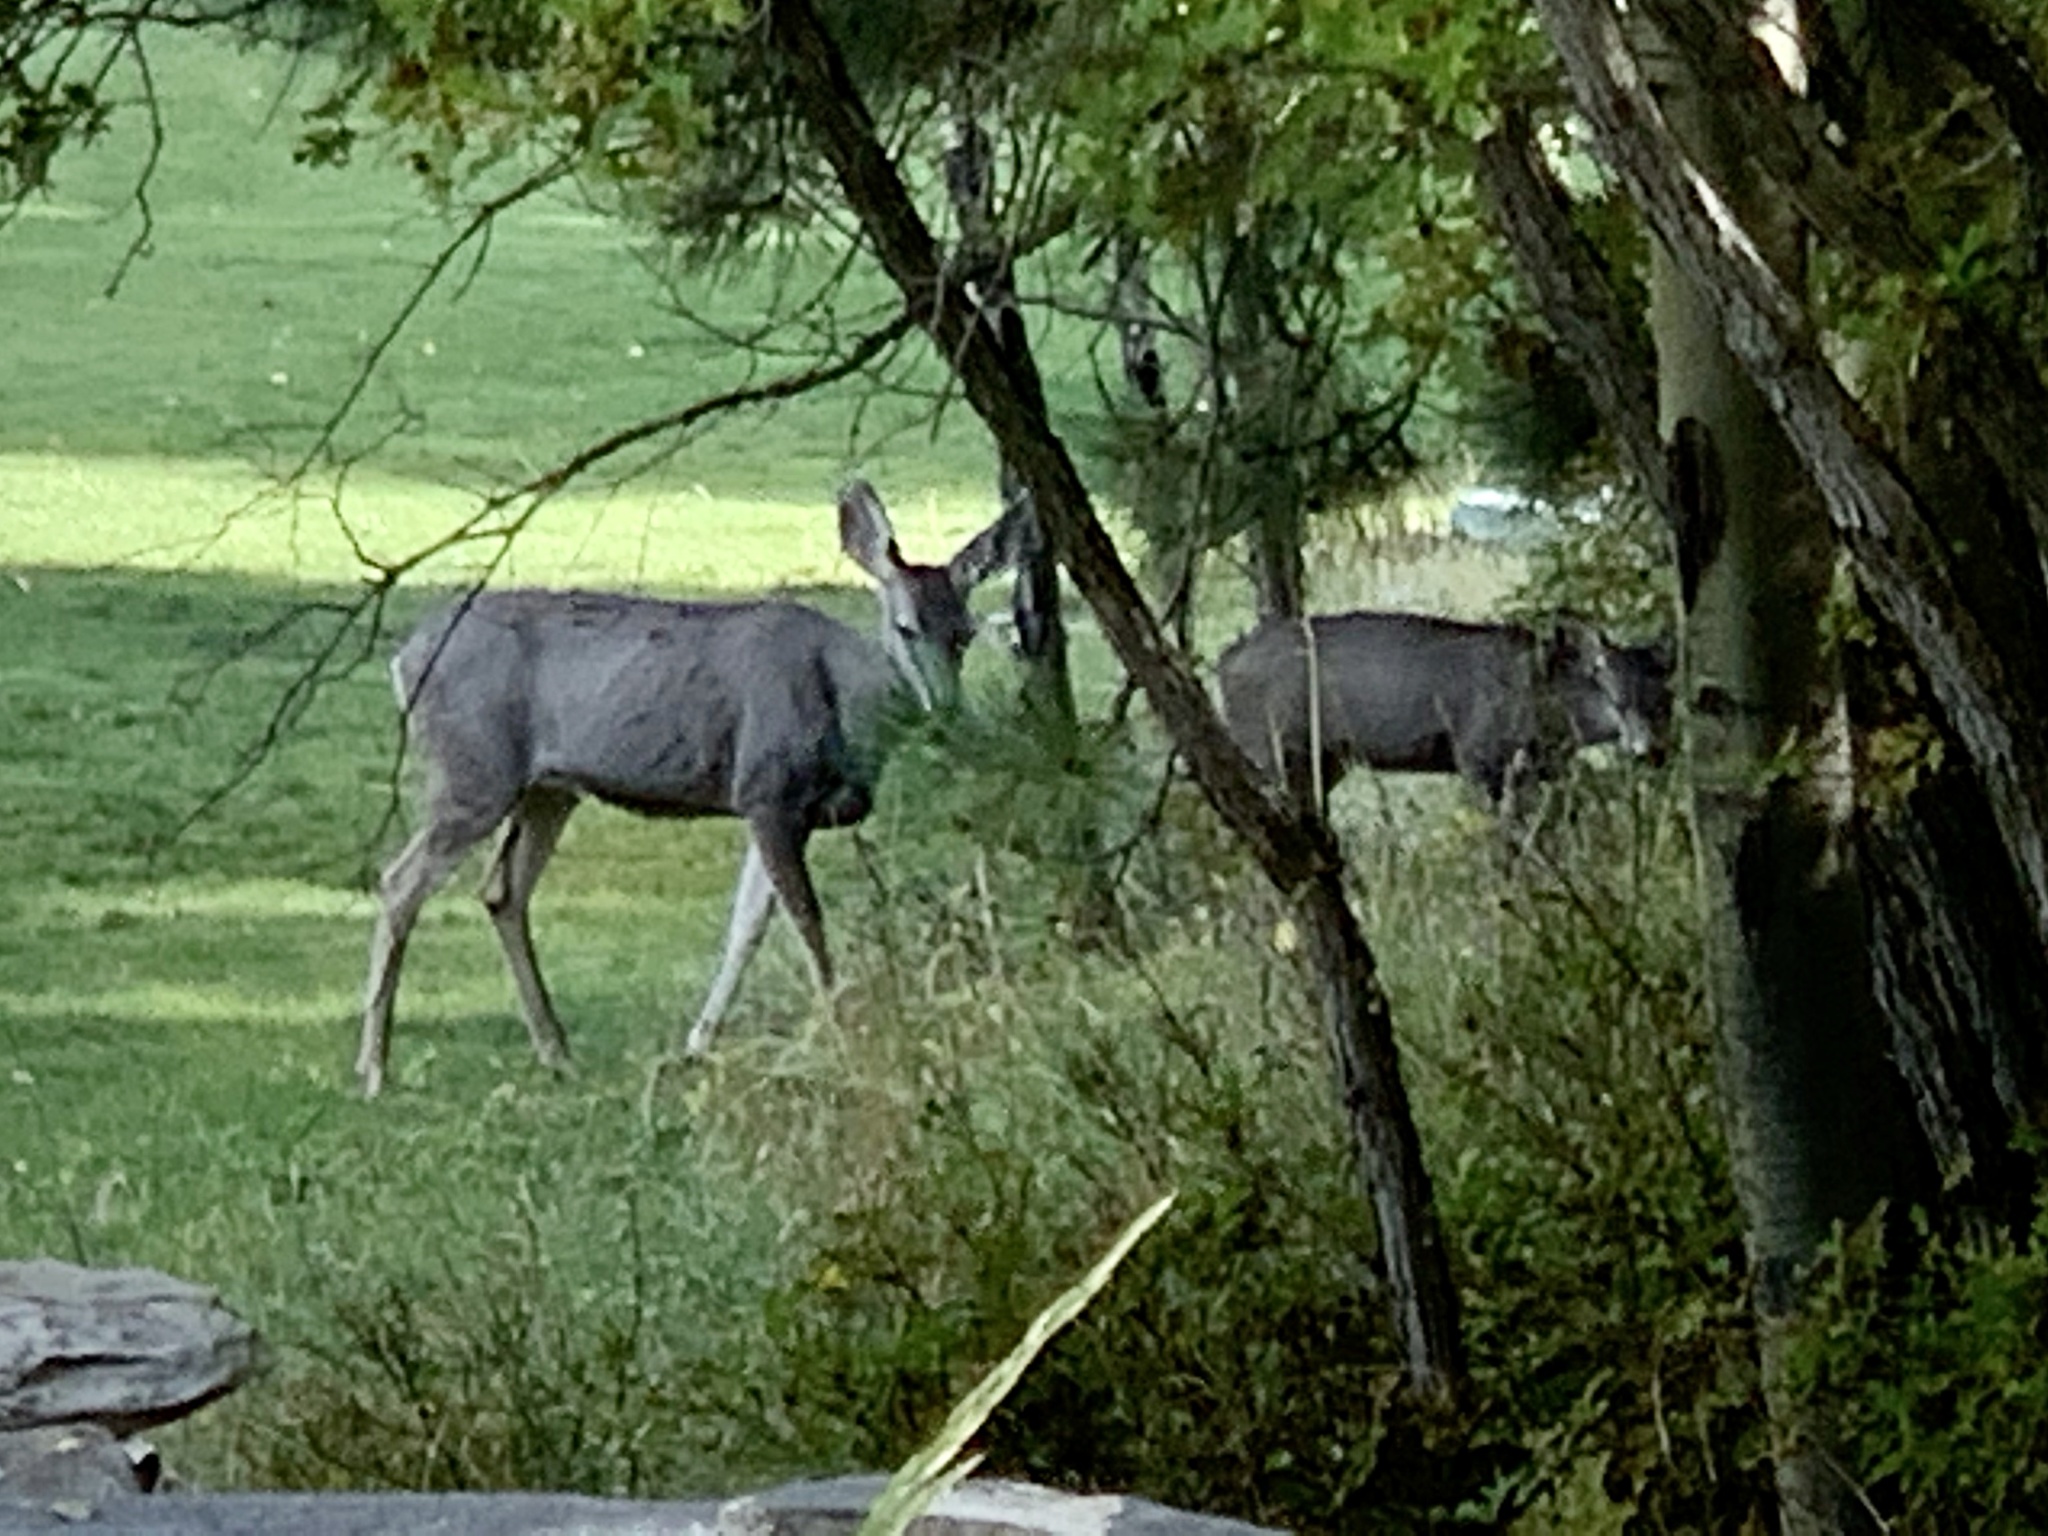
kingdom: Animalia
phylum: Chordata
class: Mammalia
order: Artiodactyla
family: Cervidae
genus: Odocoileus
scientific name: Odocoileus hemionus
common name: Mule deer
